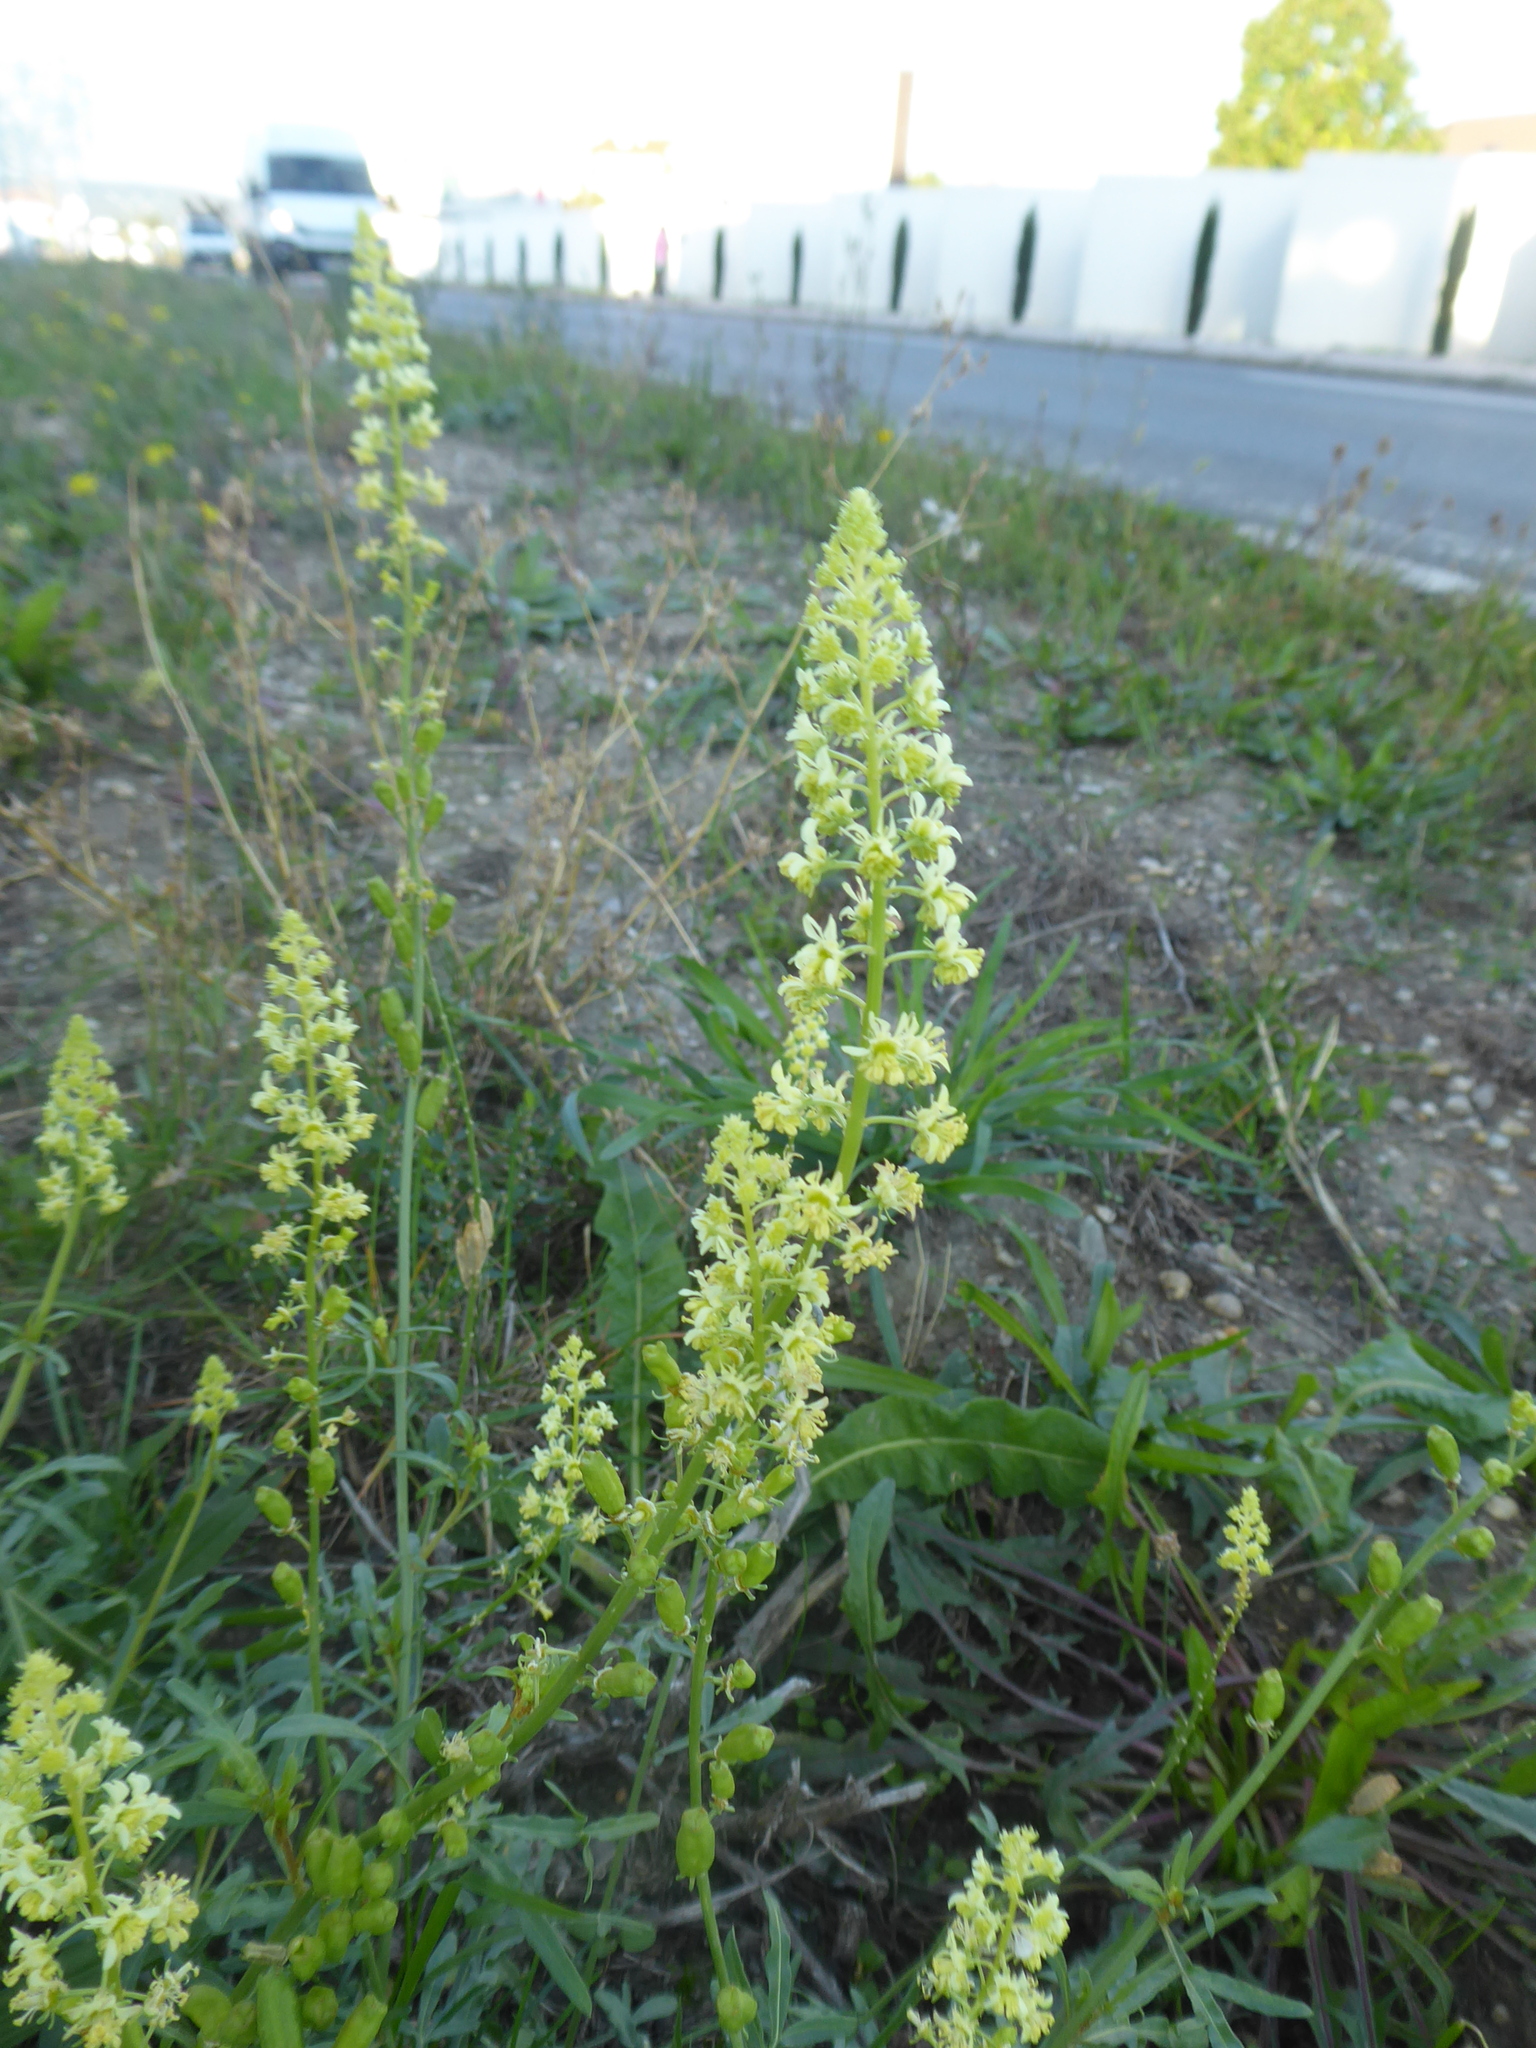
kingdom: Plantae
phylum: Tracheophyta
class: Magnoliopsida
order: Brassicales
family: Resedaceae
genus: Reseda
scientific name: Reseda lutea
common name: Wild mignonette
